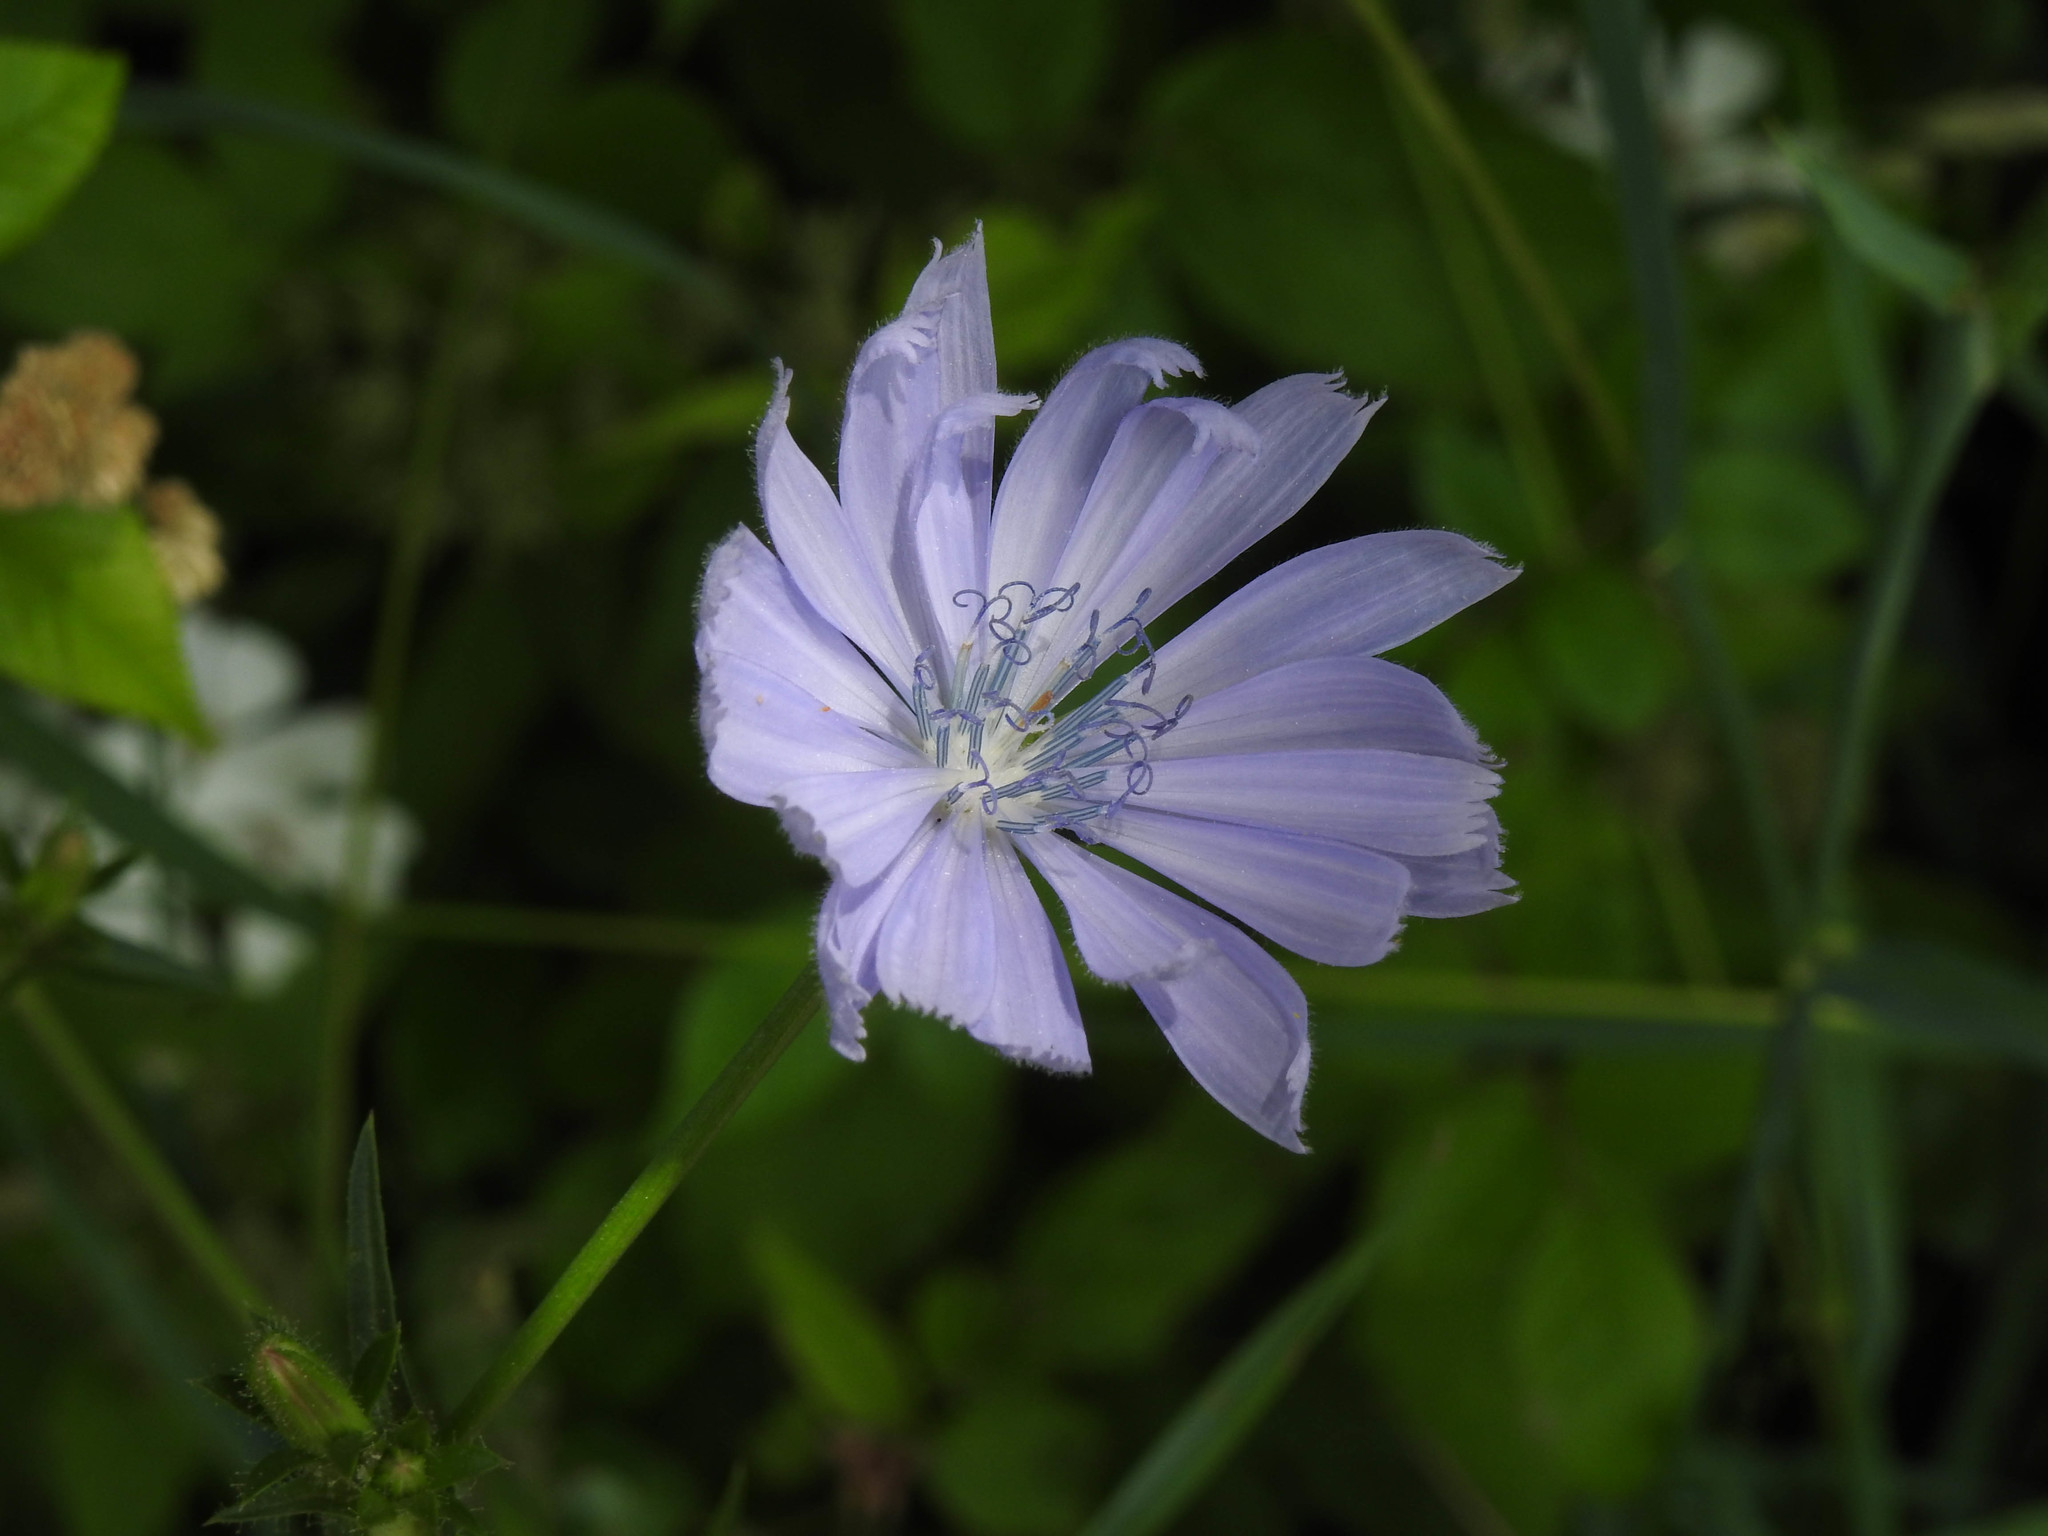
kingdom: Plantae
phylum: Tracheophyta
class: Magnoliopsida
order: Asterales
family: Asteraceae
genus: Cichorium
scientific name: Cichorium intybus
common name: Chicory
